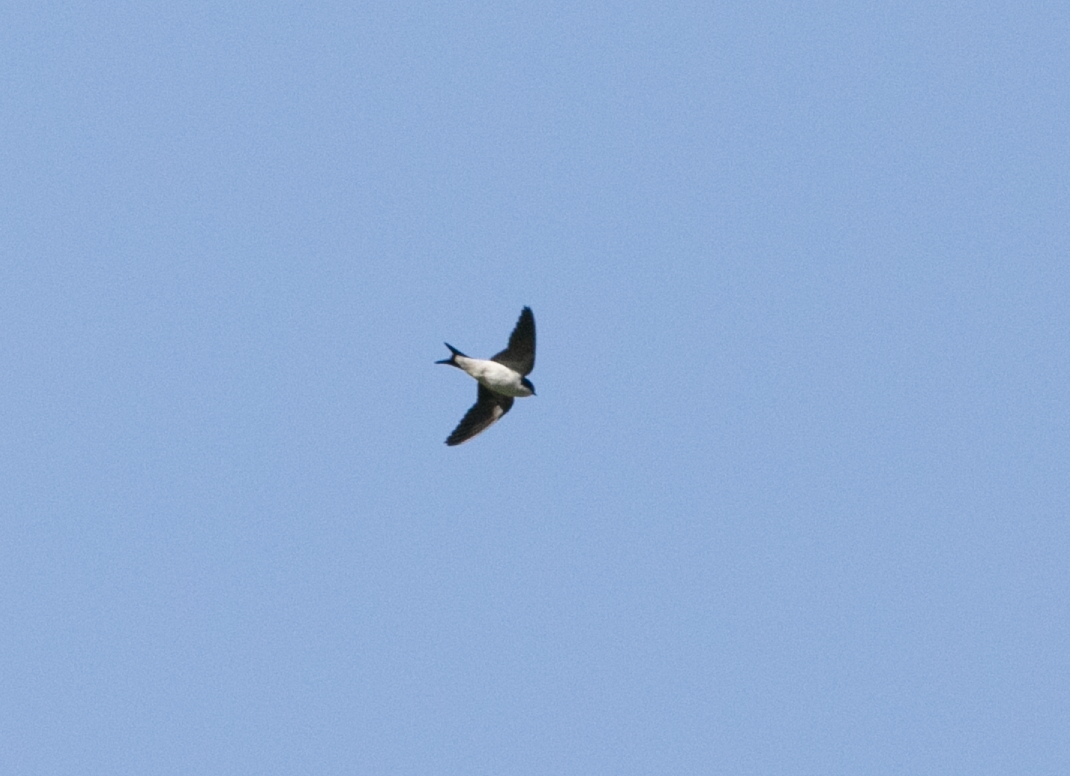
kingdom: Animalia
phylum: Chordata
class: Aves
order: Passeriformes
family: Hirundinidae
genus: Delichon
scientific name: Delichon urbicum
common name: Common house martin
